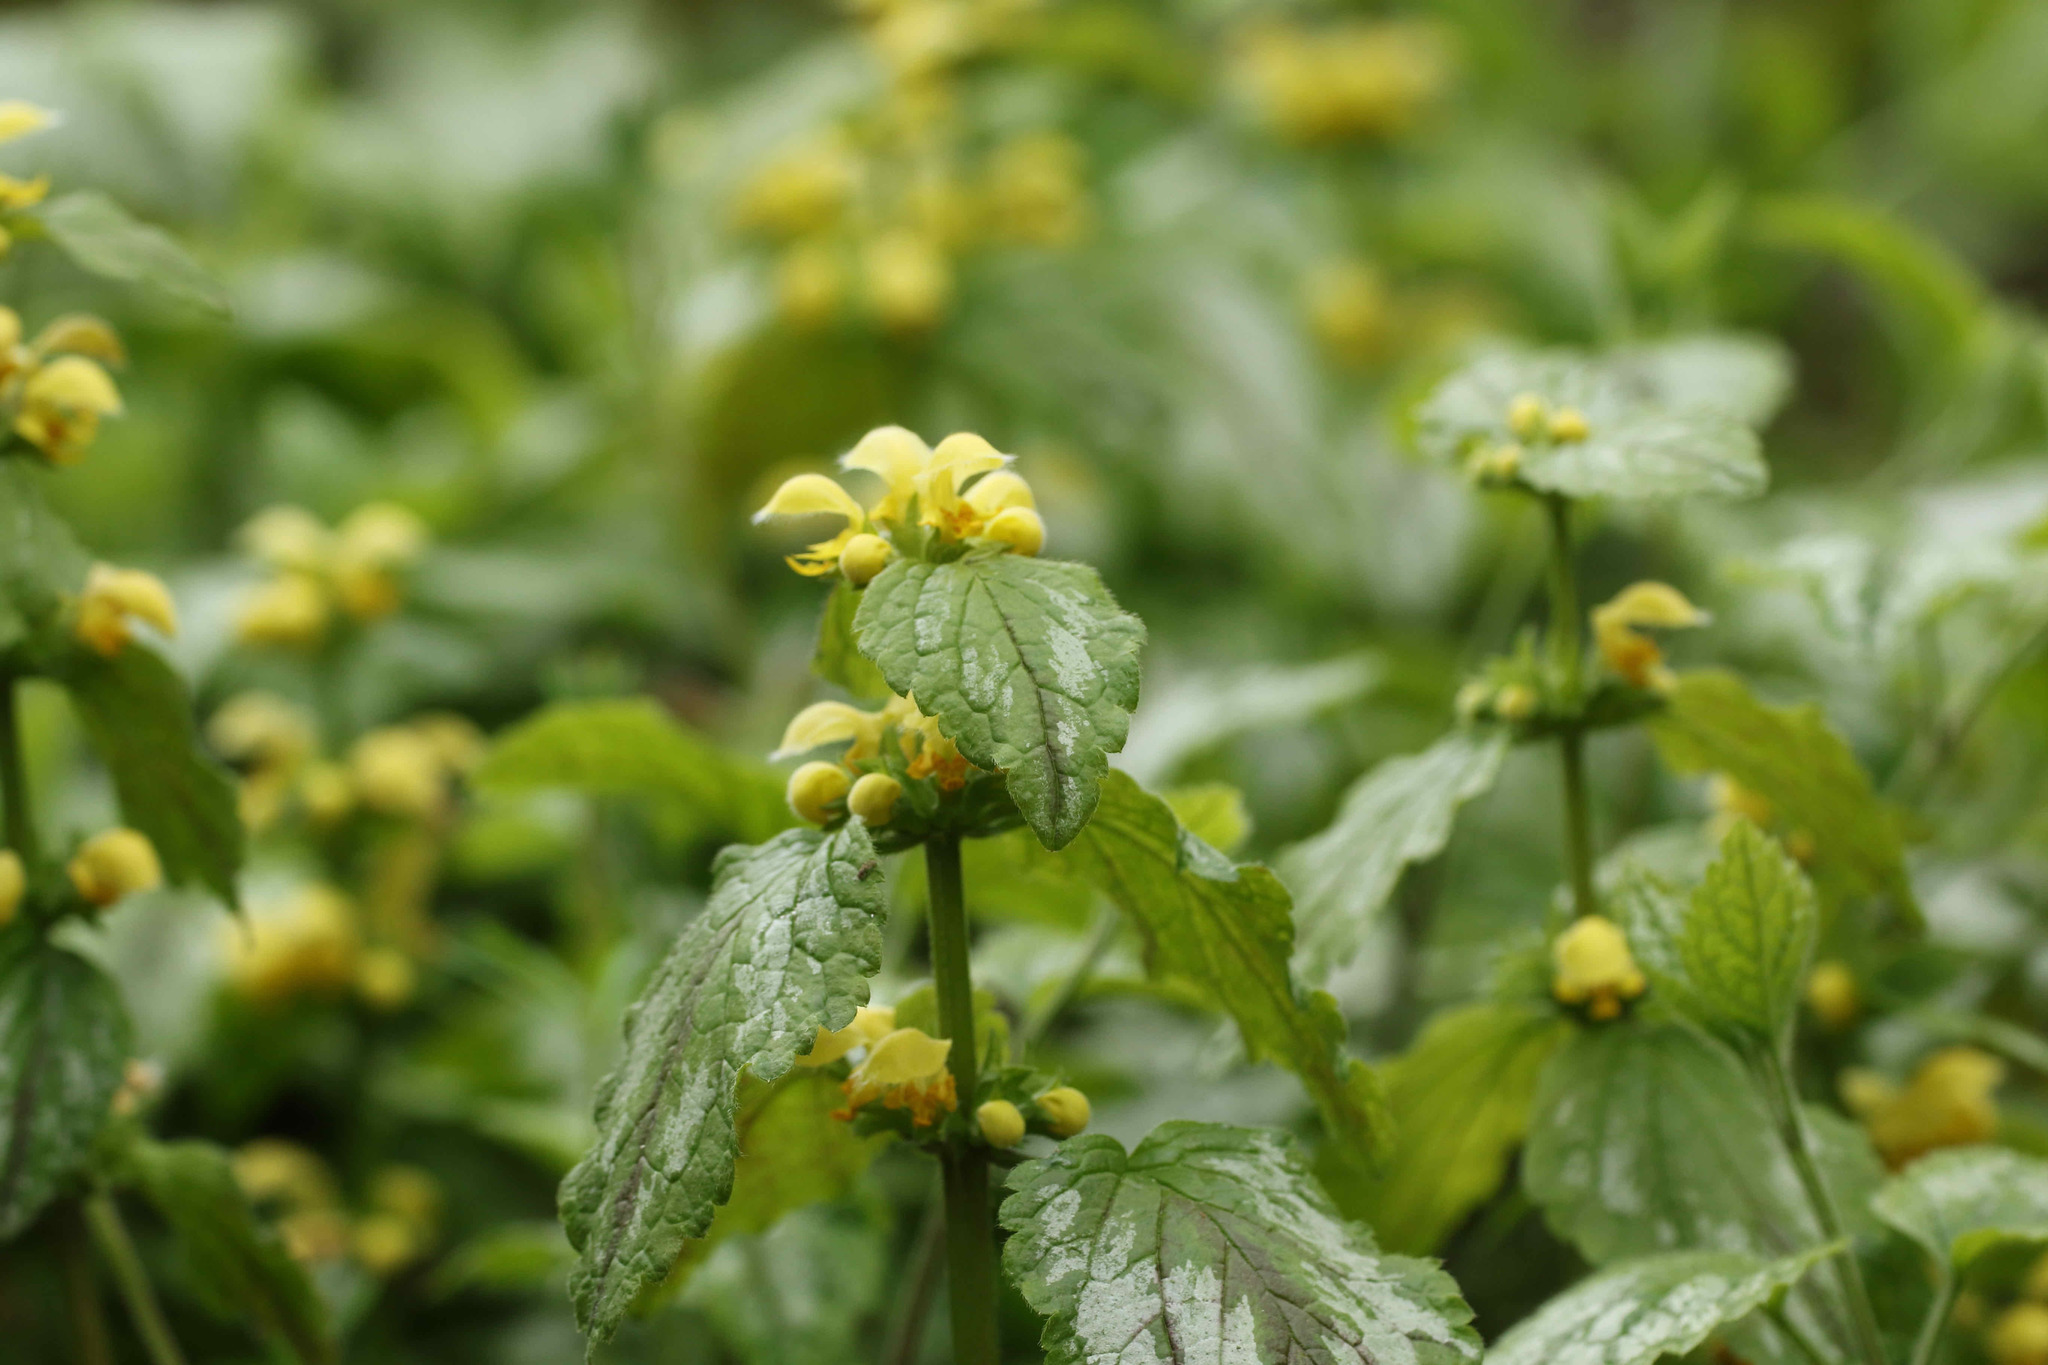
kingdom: Plantae
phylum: Tracheophyta
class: Magnoliopsida
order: Lamiales
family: Lamiaceae
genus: Lamium
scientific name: Lamium galeobdolon
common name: Yellow archangel
